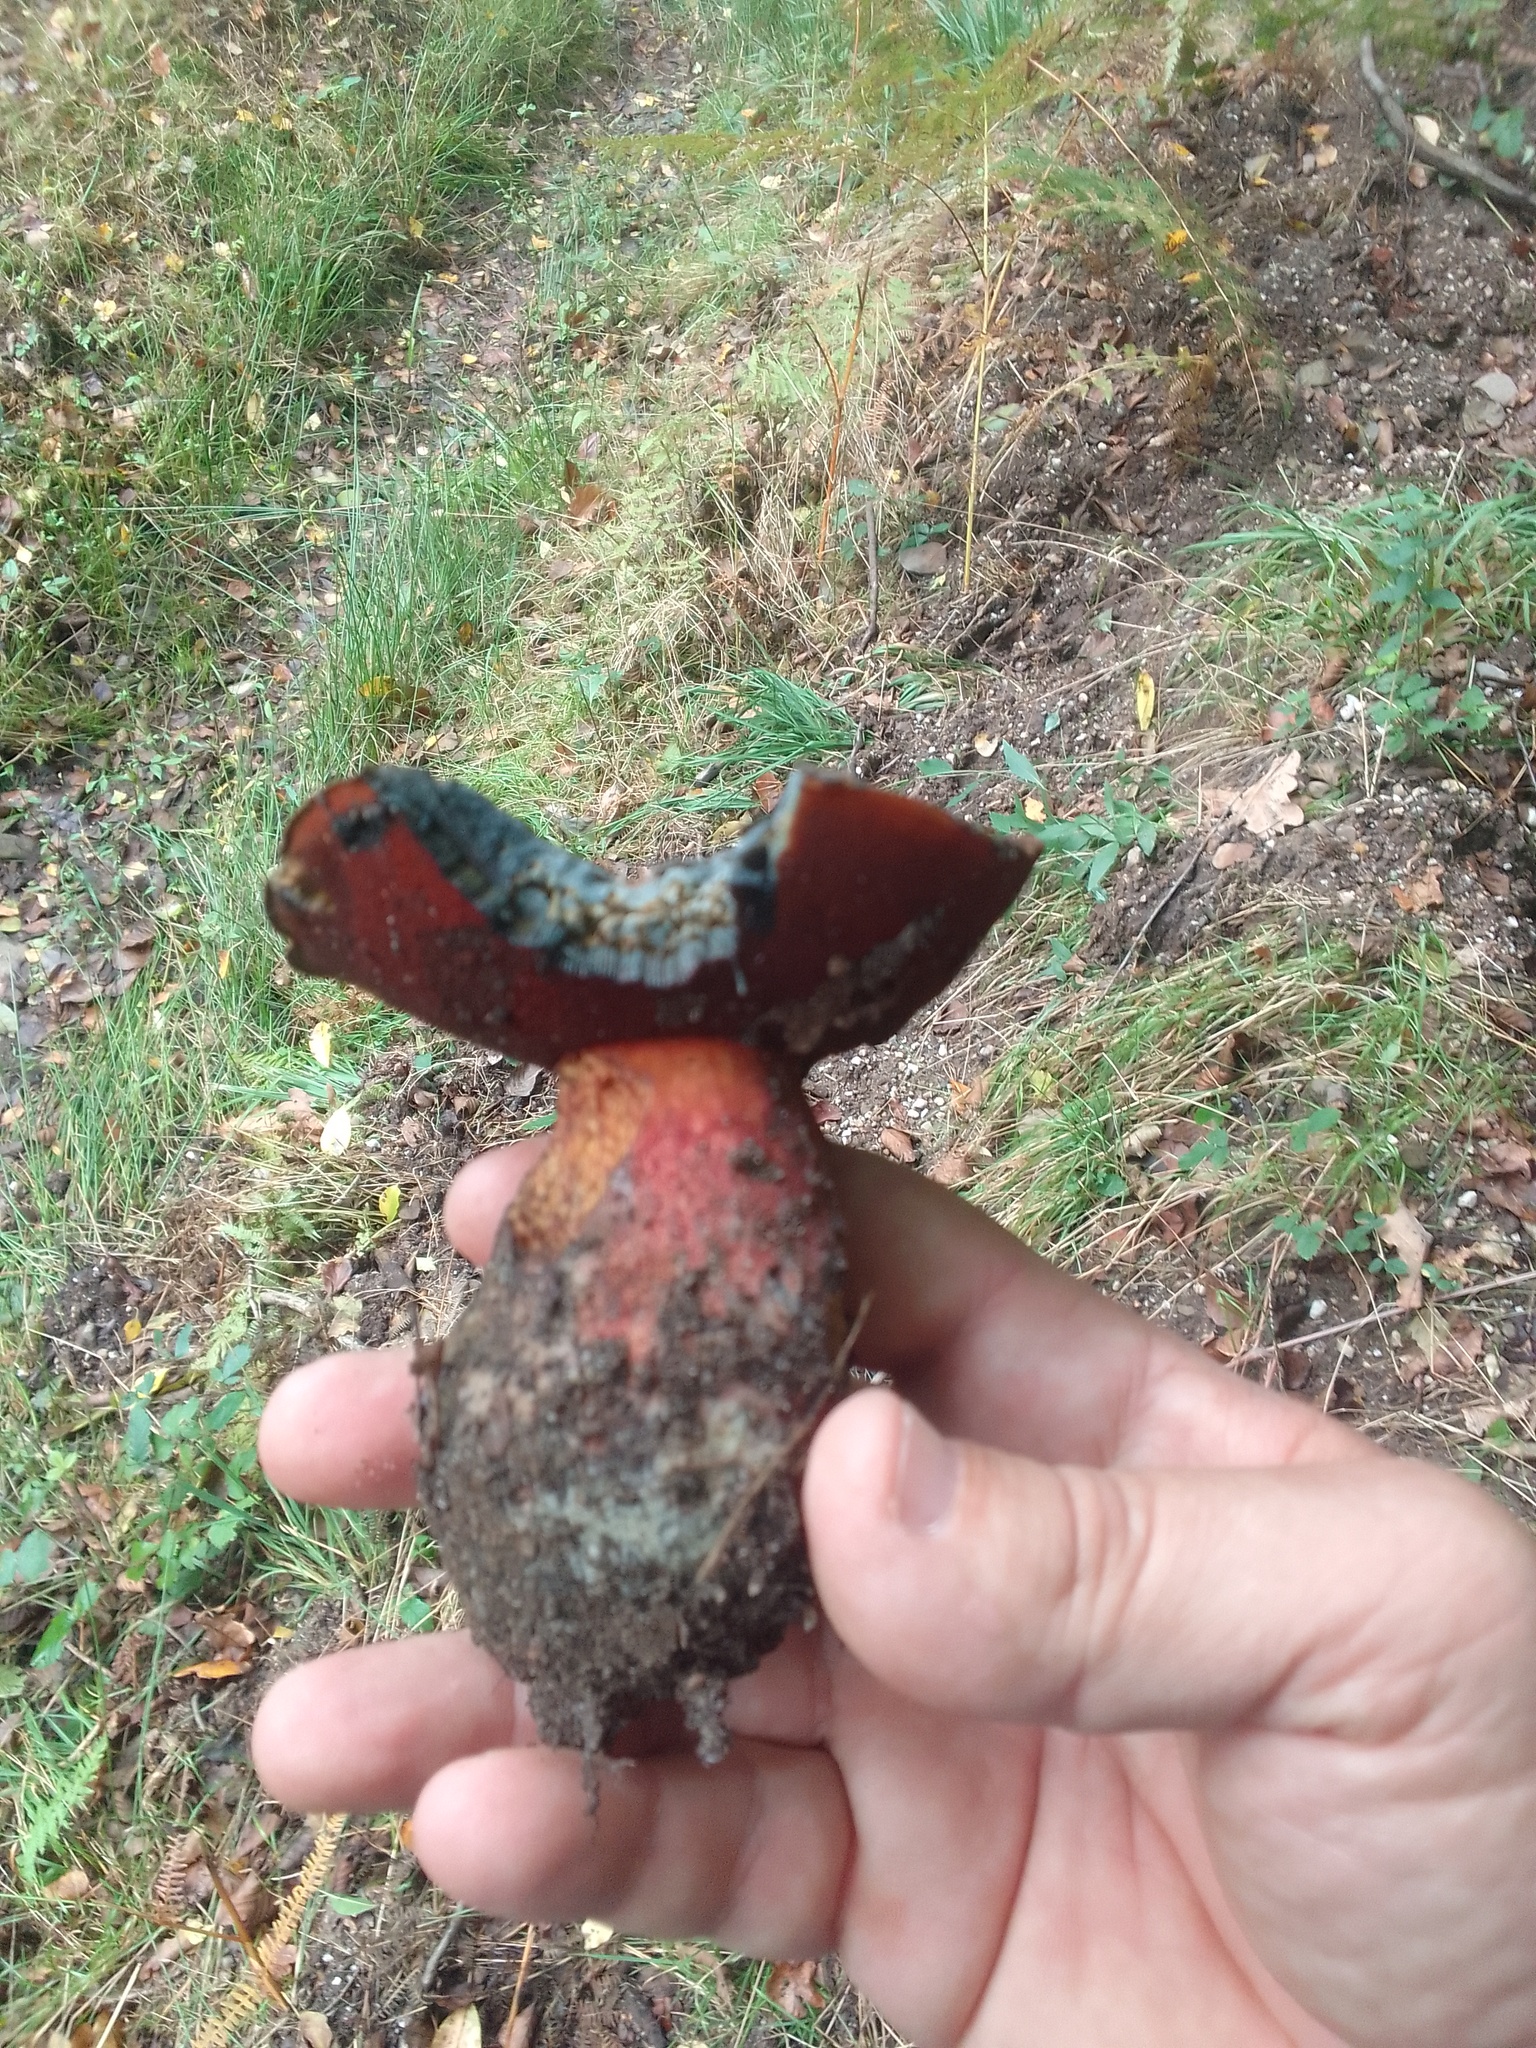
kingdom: Fungi
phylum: Basidiomycota
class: Agaricomycetes
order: Boletales
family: Boletaceae
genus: Suillellus
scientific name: Suillellus luridus
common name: Lurid bolete
